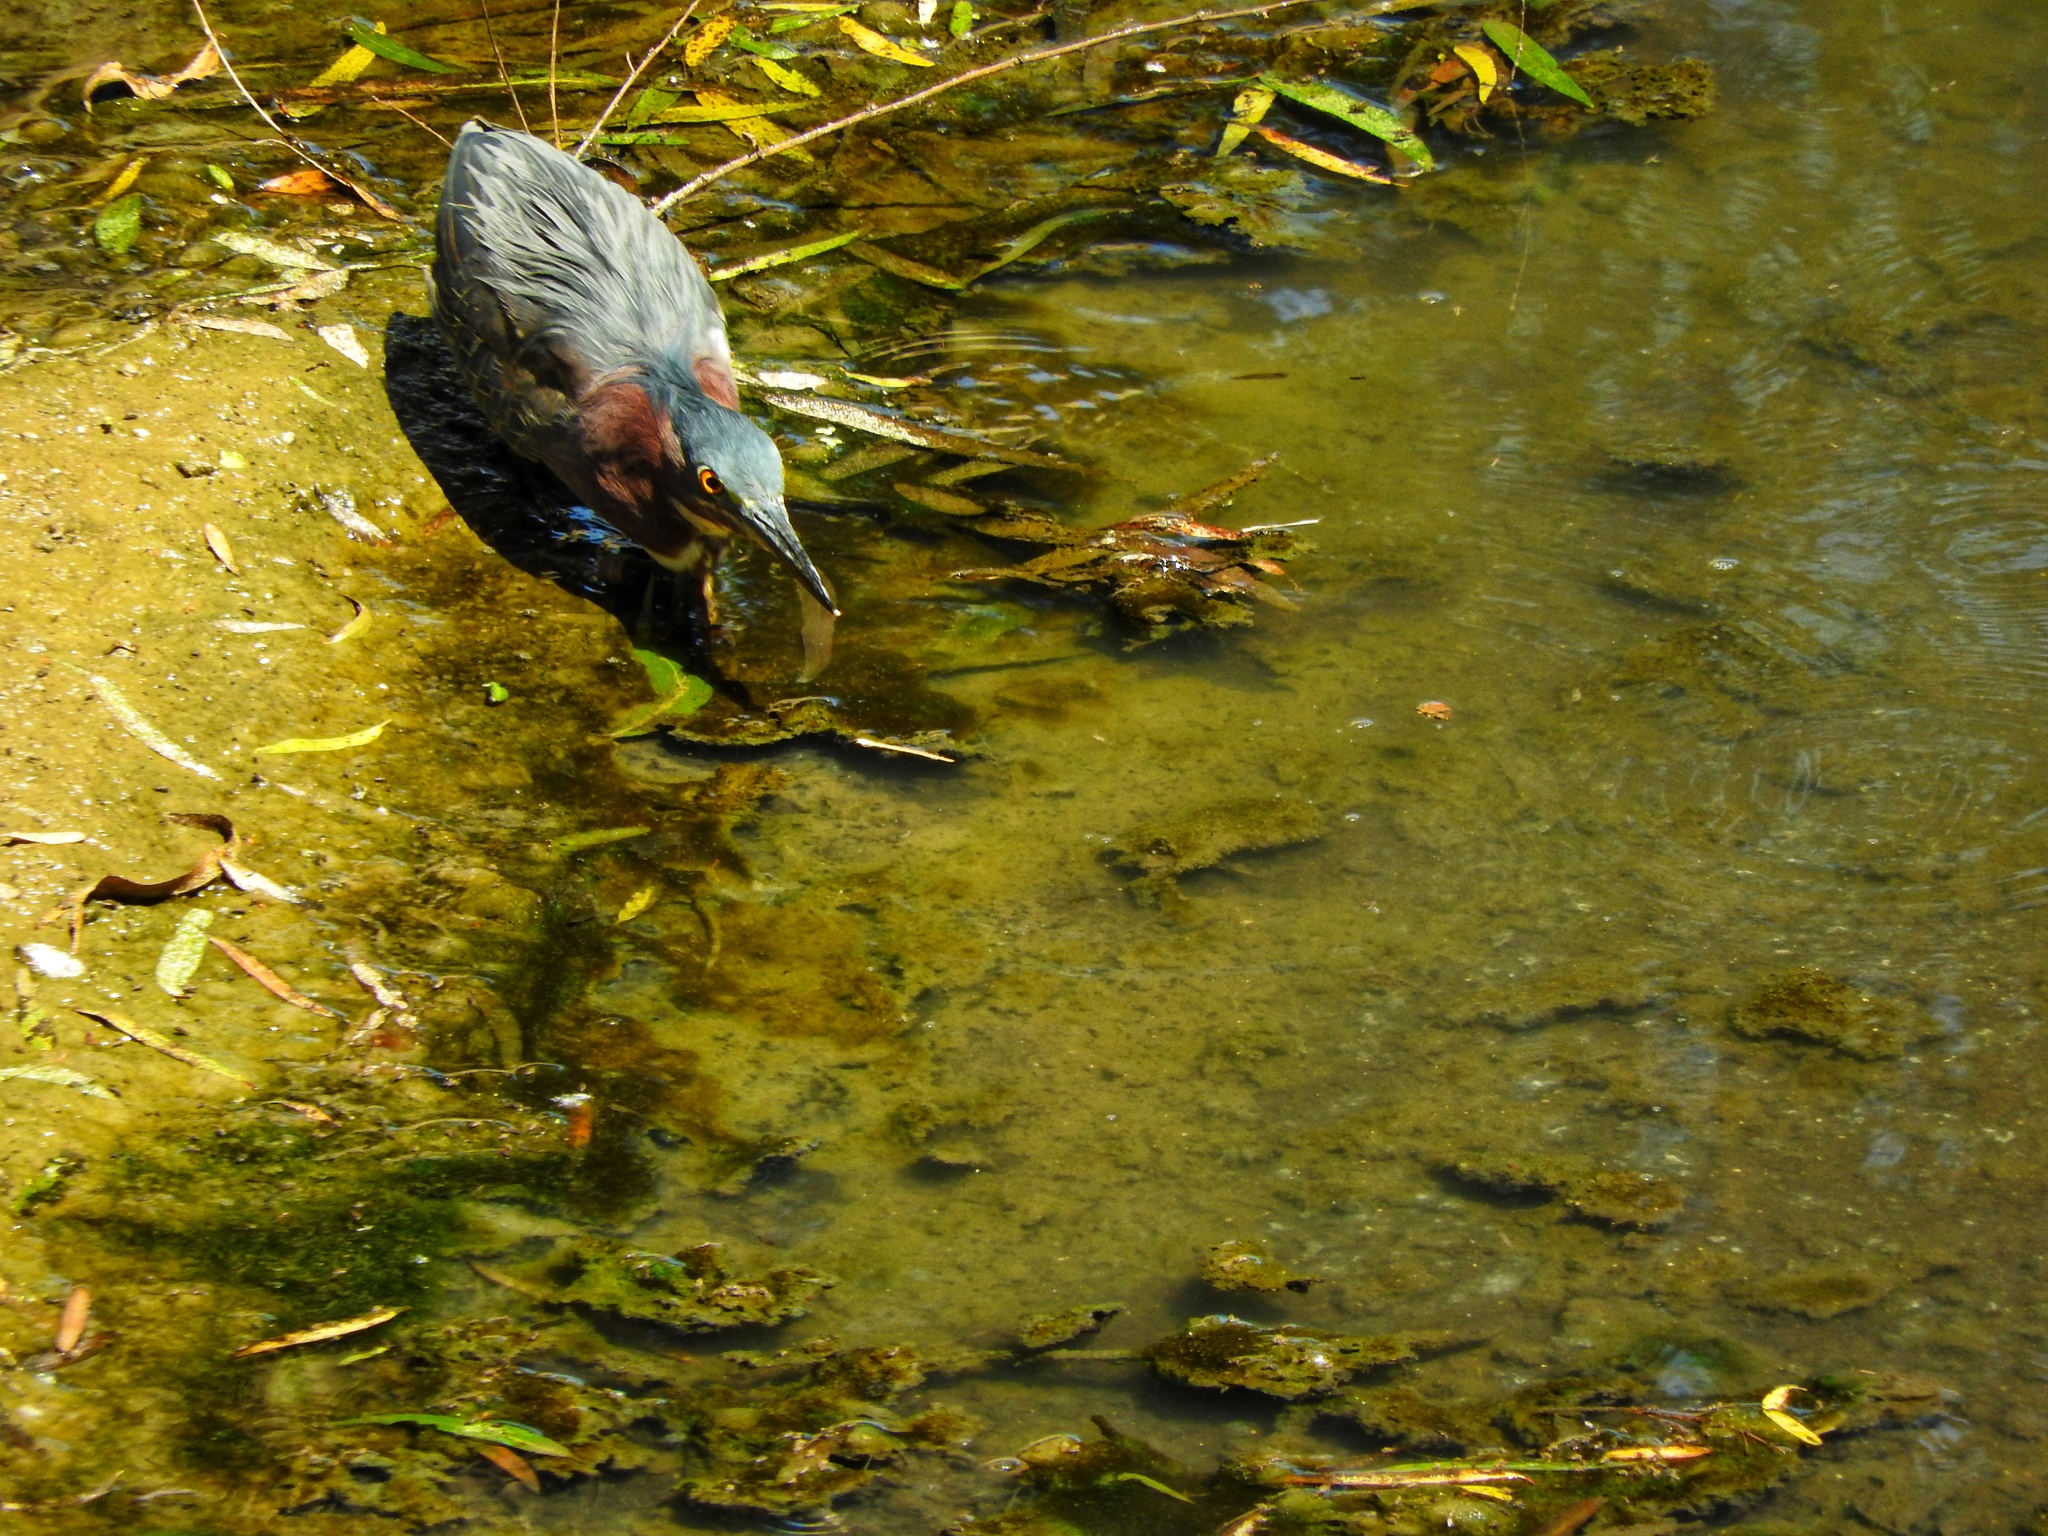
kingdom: Animalia
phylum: Chordata
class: Aves
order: Pelecaniformes
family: Ardeidae
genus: Butorides
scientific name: Butorides virescens
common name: Green heron
